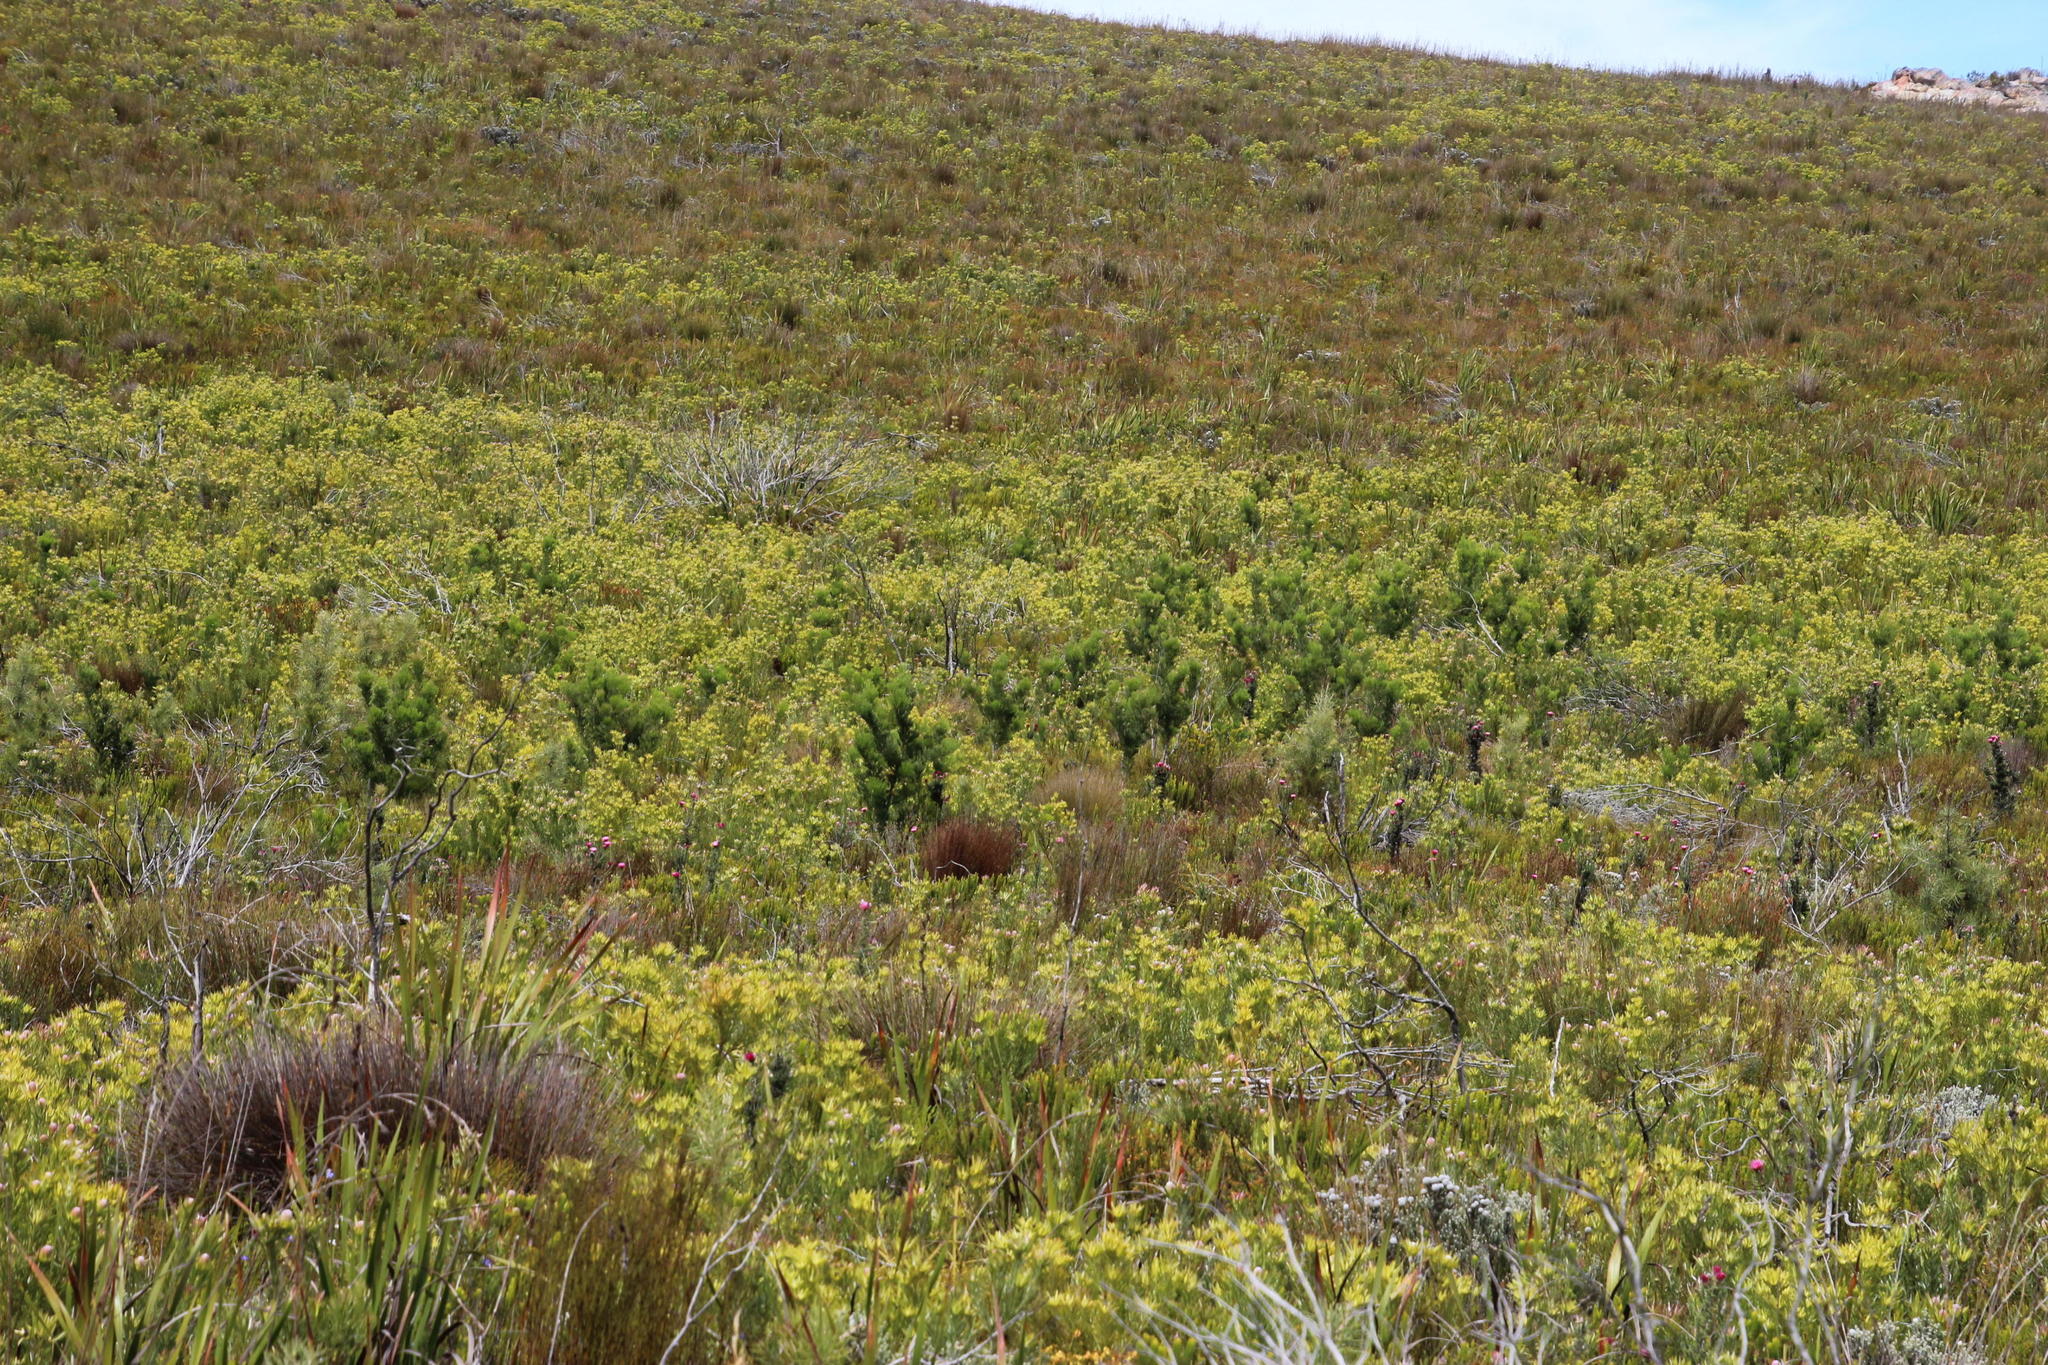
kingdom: Plantae
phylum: Tracheophyta
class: Magnoliopsida
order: Proteales
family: Proteaceae
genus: Hakea
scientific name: Hakea drupacea
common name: Sweet hakea
